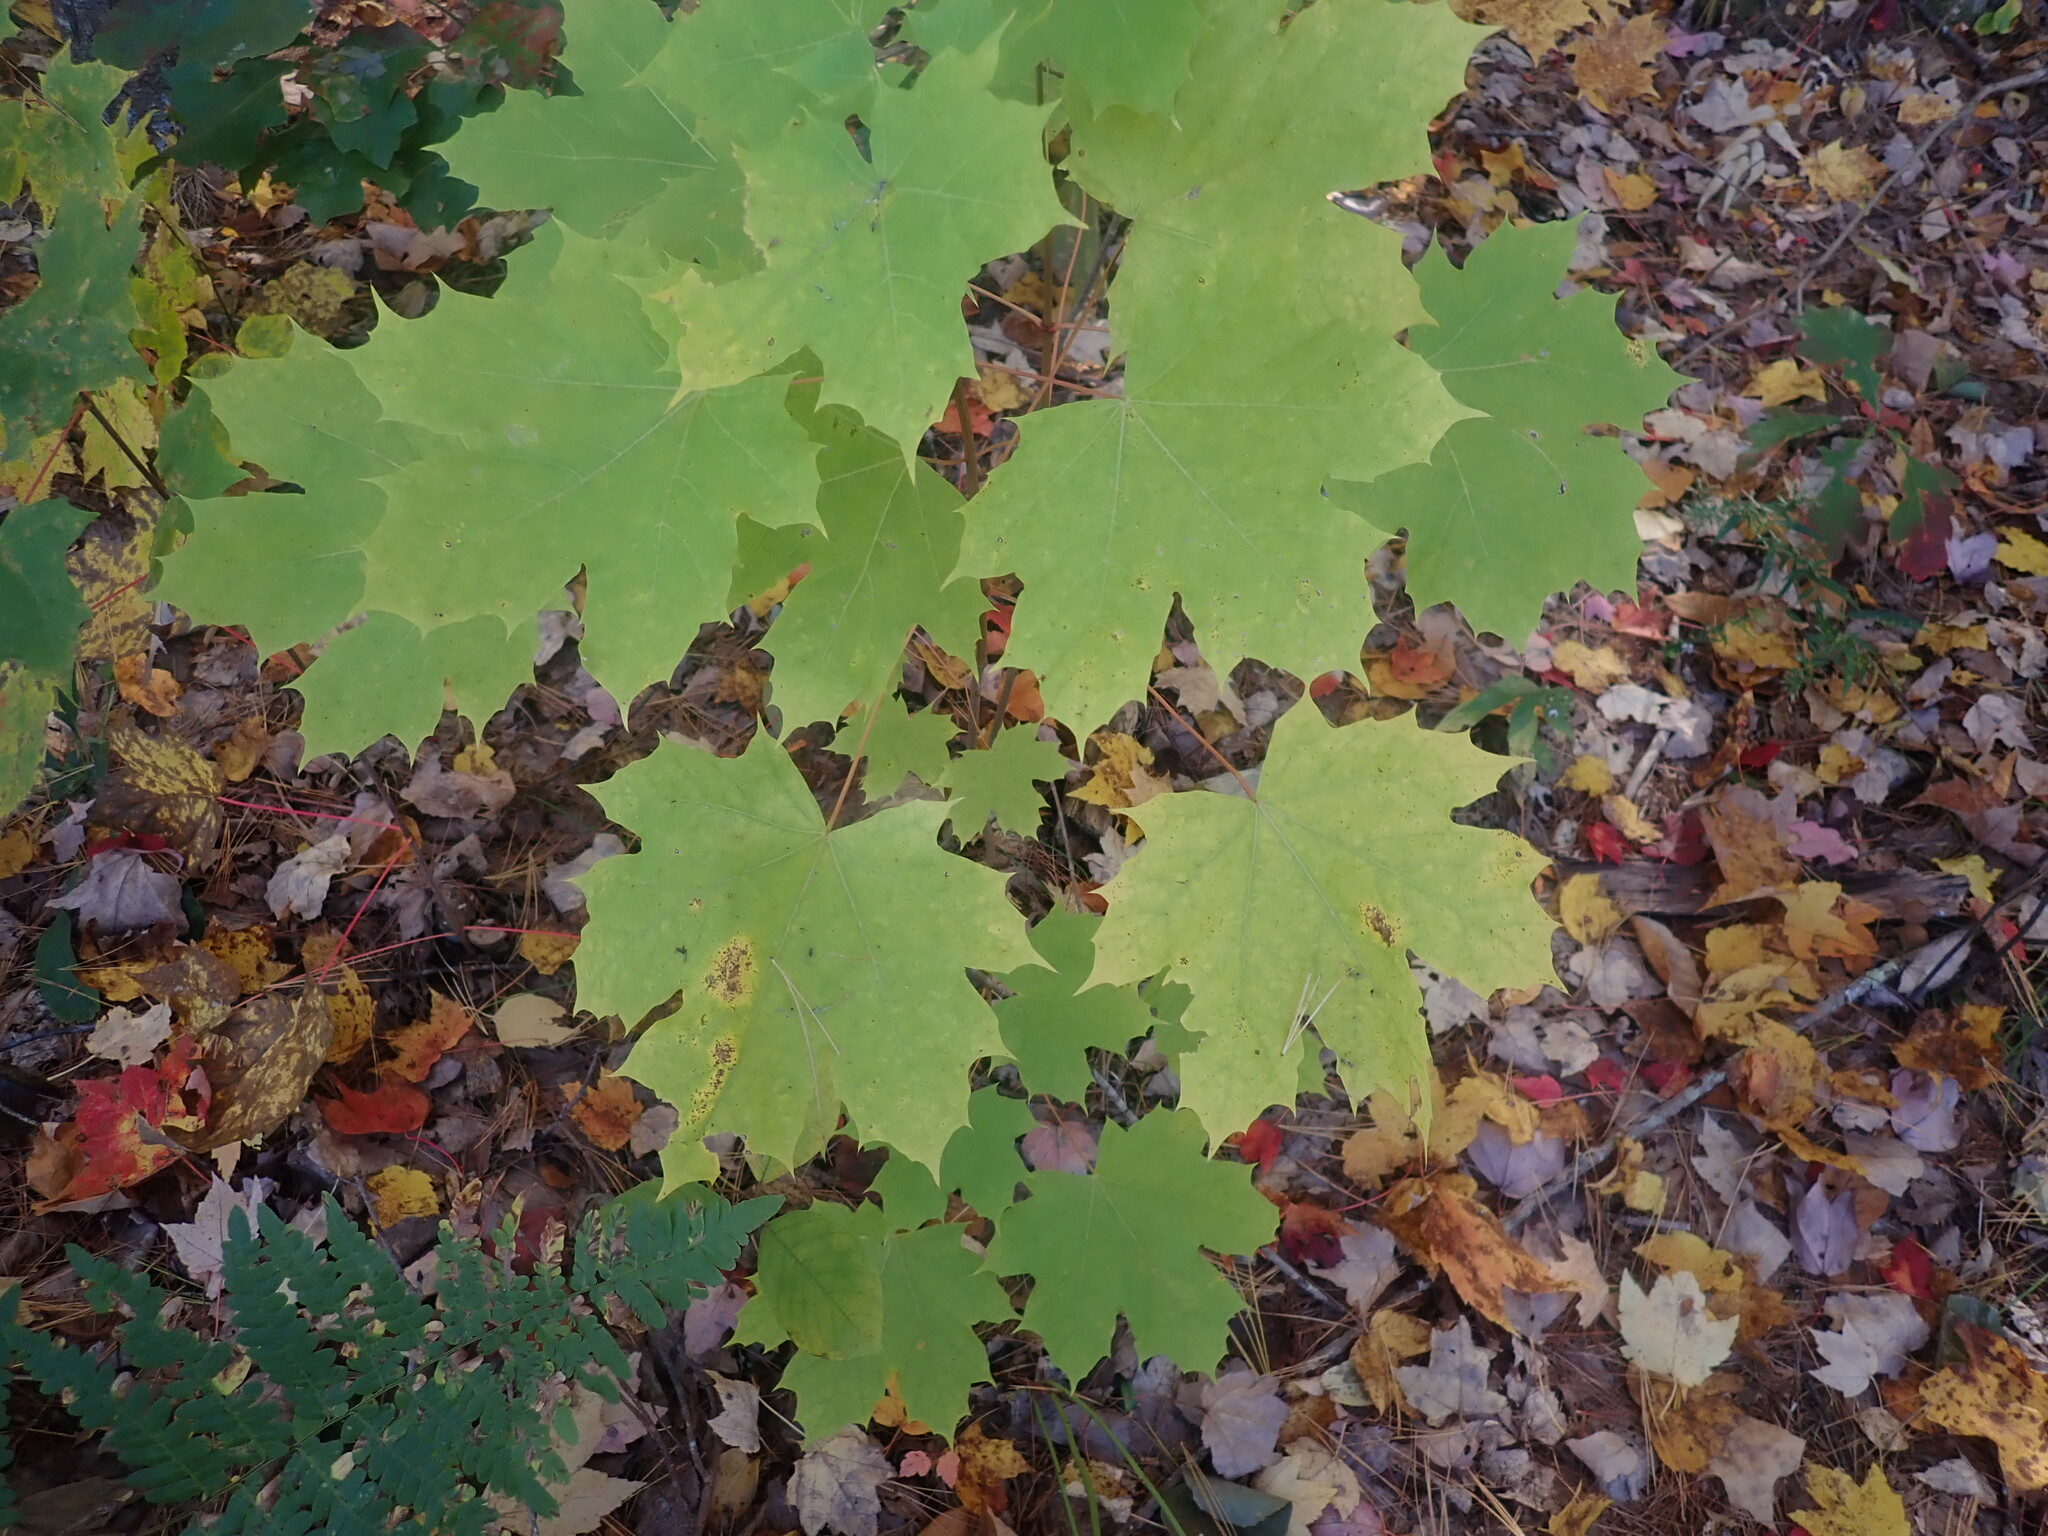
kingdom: Plantae
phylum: Tracheophyta
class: Magnoliopsida
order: Sapindales
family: Sapindaceae
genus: Acer
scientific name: Acer platanoides
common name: Norway maple
